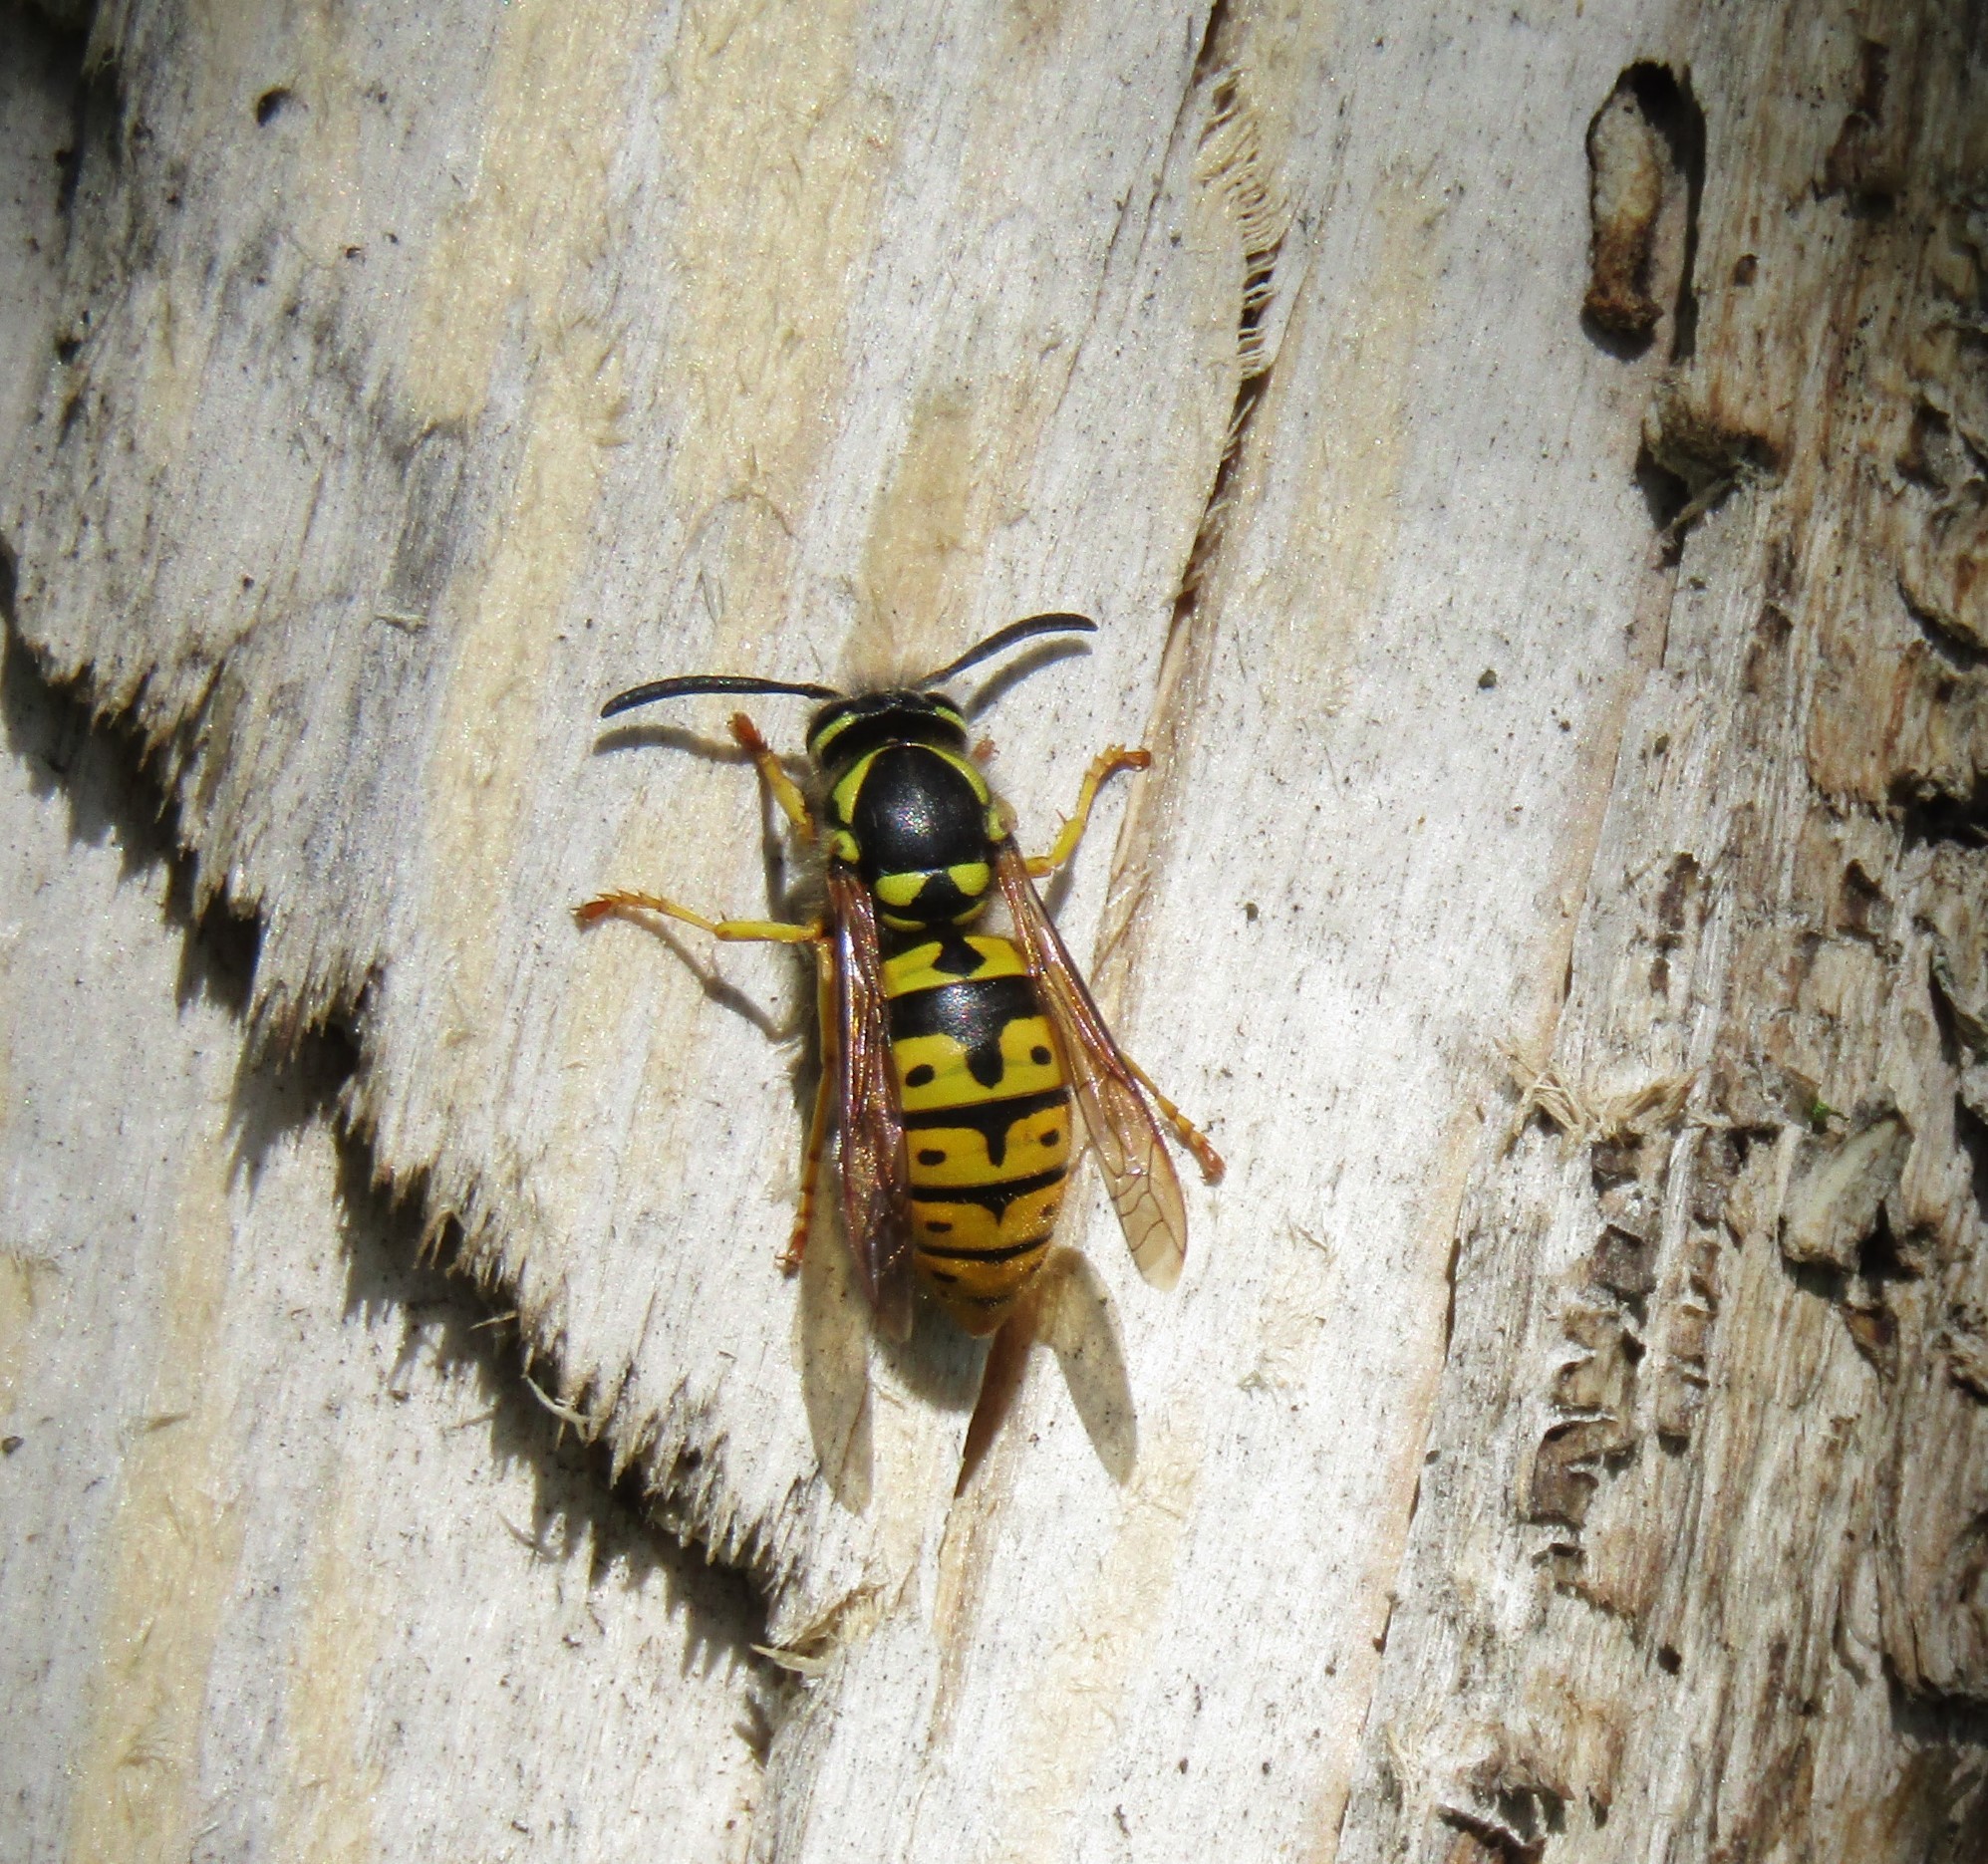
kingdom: Animalia
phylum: Arthropoda
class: Insecta
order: Hymenoptera
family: Vespidae
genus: Vespula
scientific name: Vespula germanica
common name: German wasp
